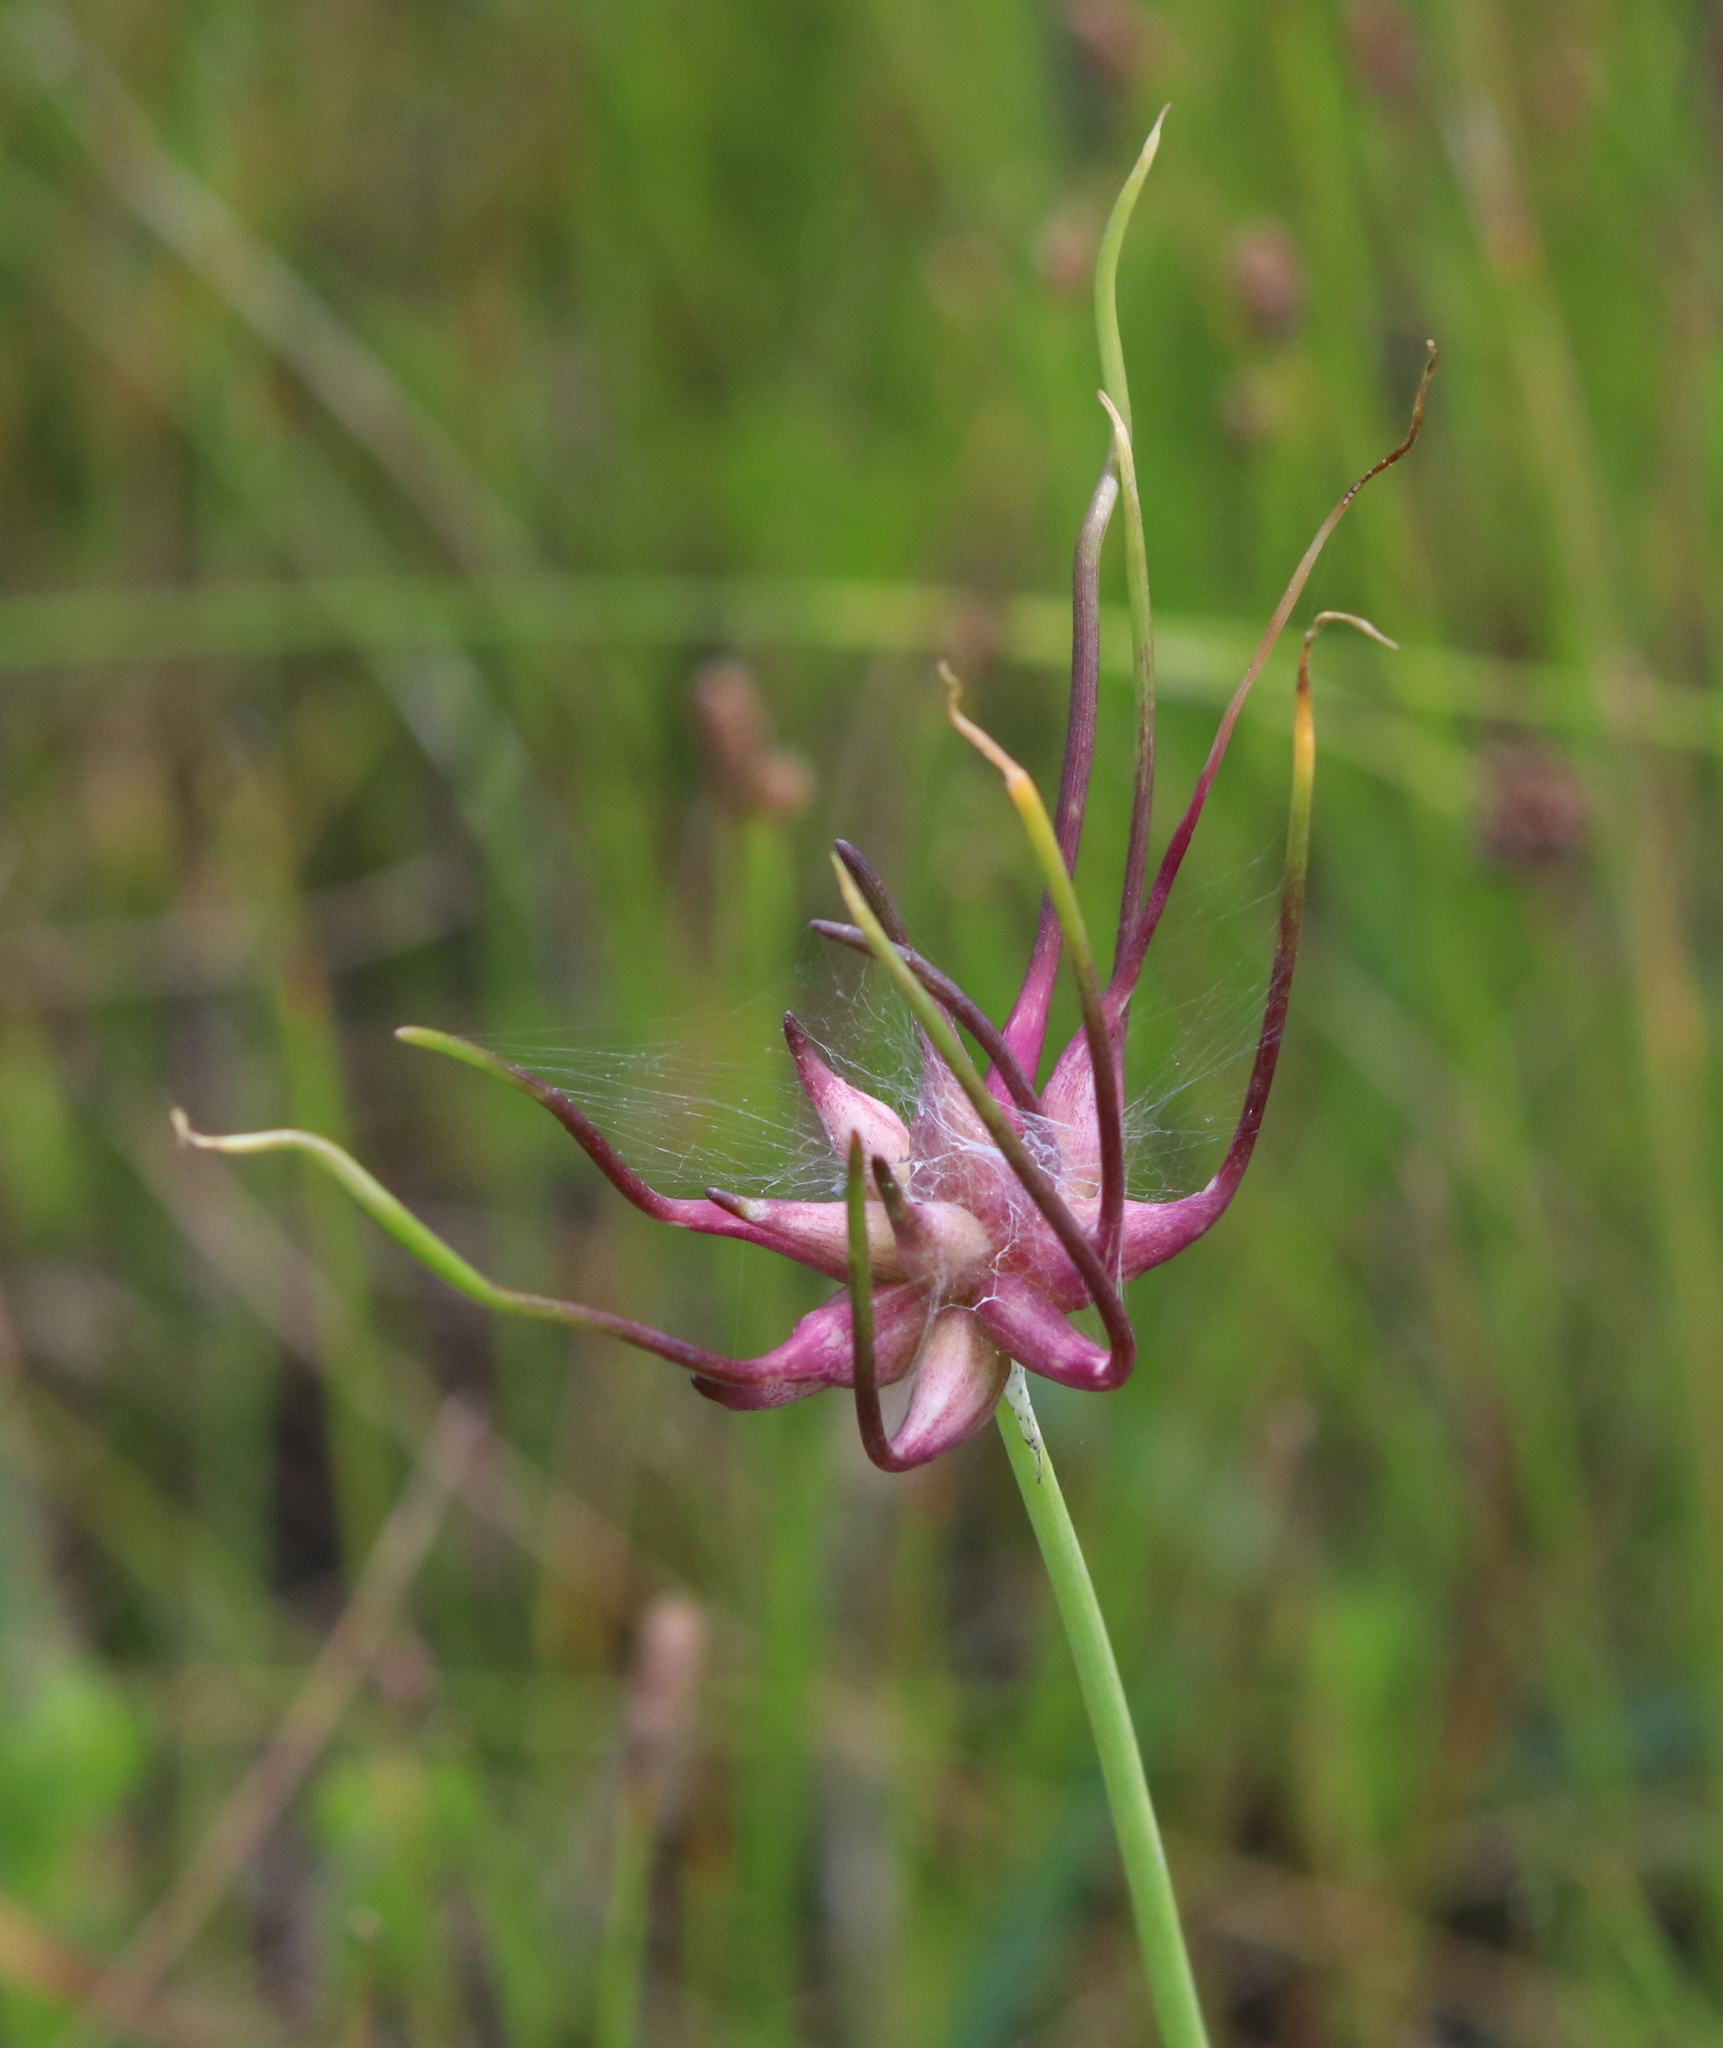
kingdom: Plantae
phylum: Tracheophyta
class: Liliopsida
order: Asparagales
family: Amaryllidaceae
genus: Allium
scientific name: Allium canadense
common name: Meadow garlic
